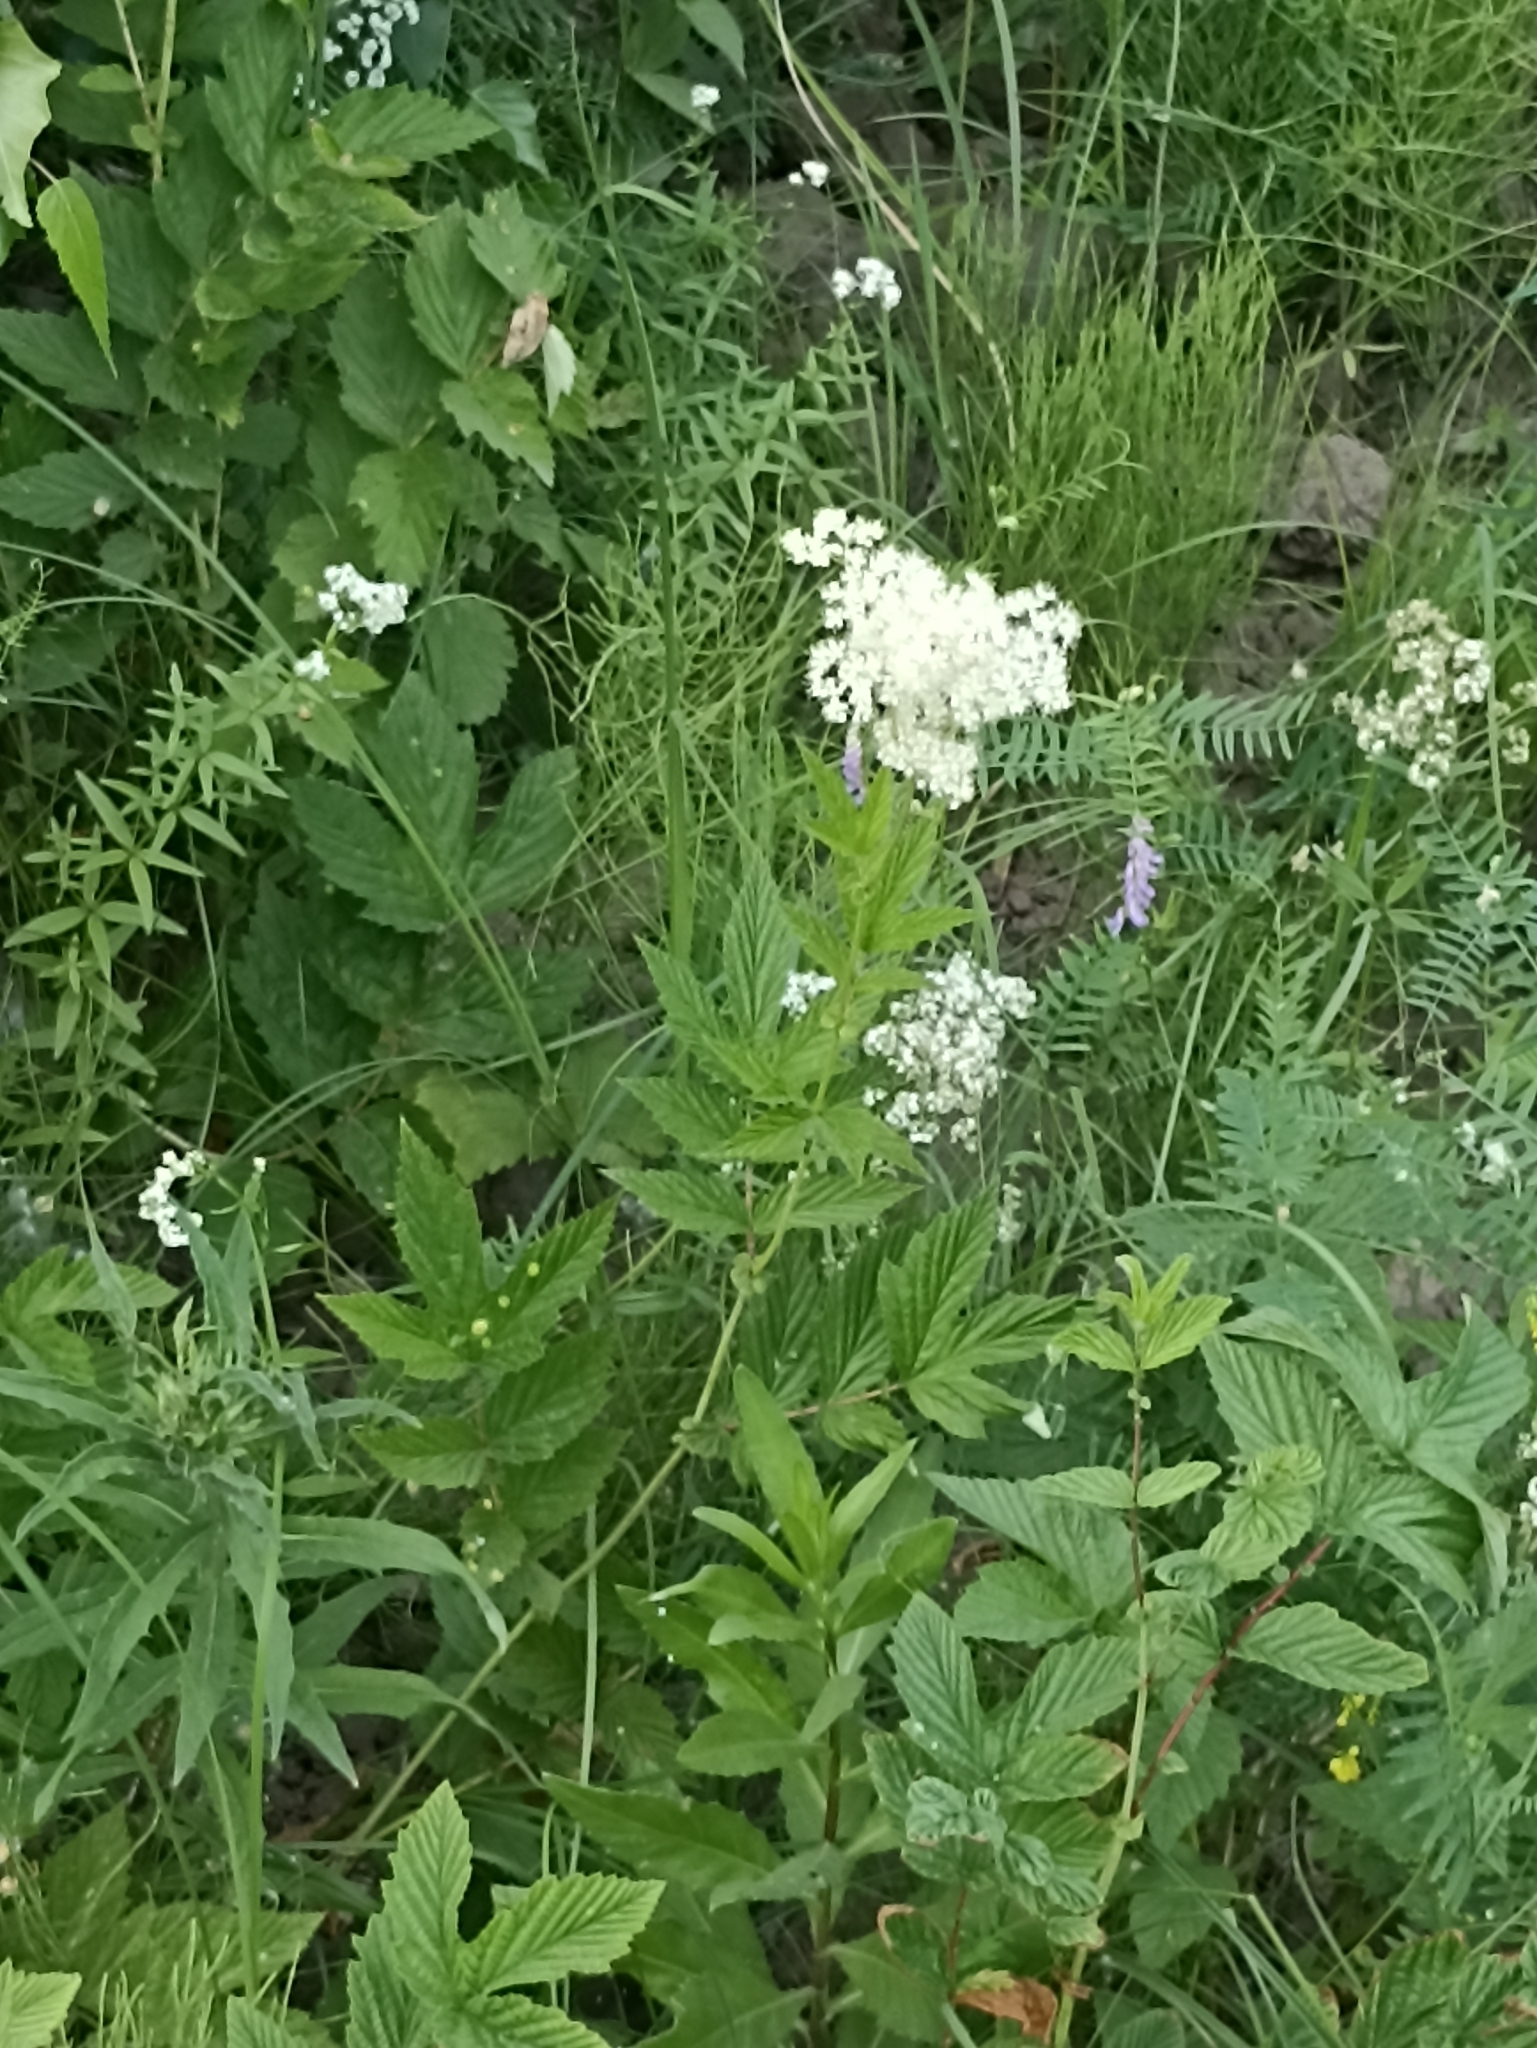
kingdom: Plantae
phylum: Tracheophyta
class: Magnoliopsida
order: Rosales
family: Rosaceae
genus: Filipendula
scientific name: Filipendula ulmaria
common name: Meadowsweet
